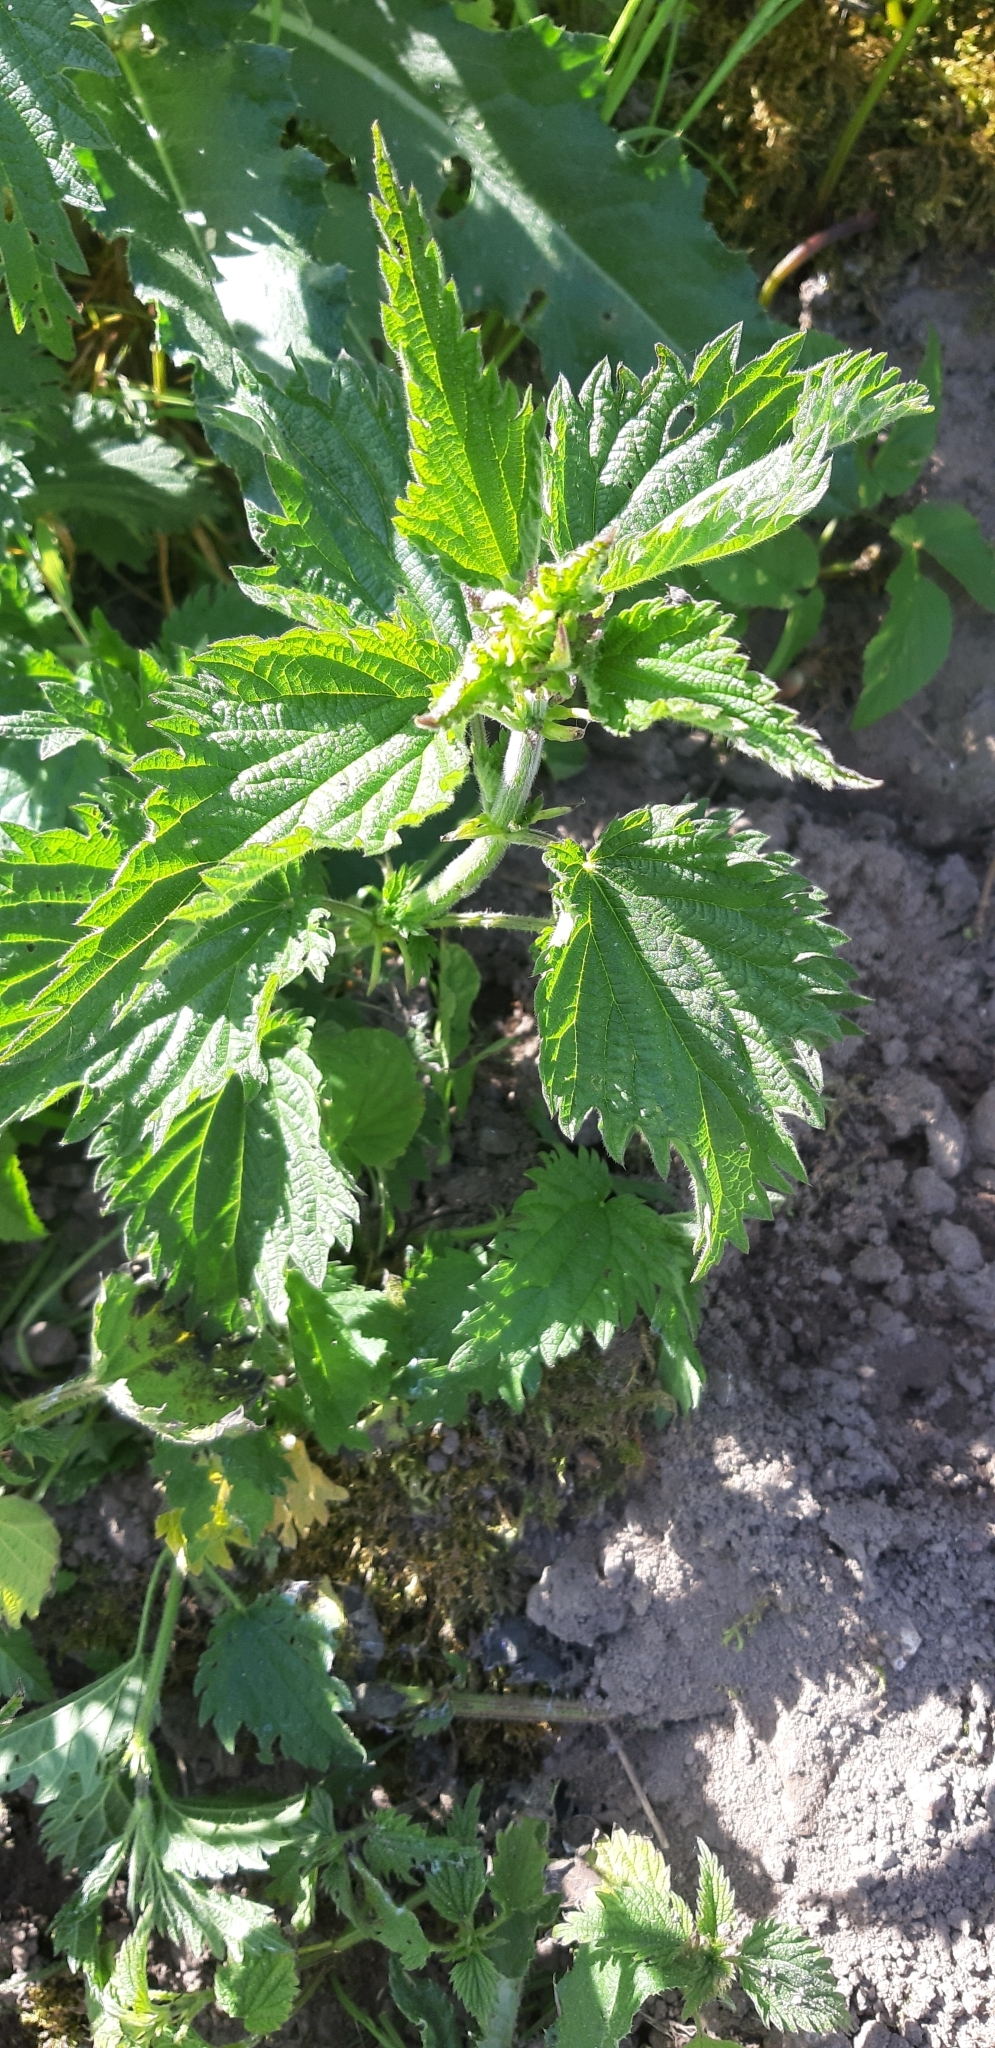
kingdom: Plantae
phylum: Tracheophyta
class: Magnoliopsida
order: Rosales
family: Urticaceae
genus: Urtica
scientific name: Urtica dioica
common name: Common nettle
